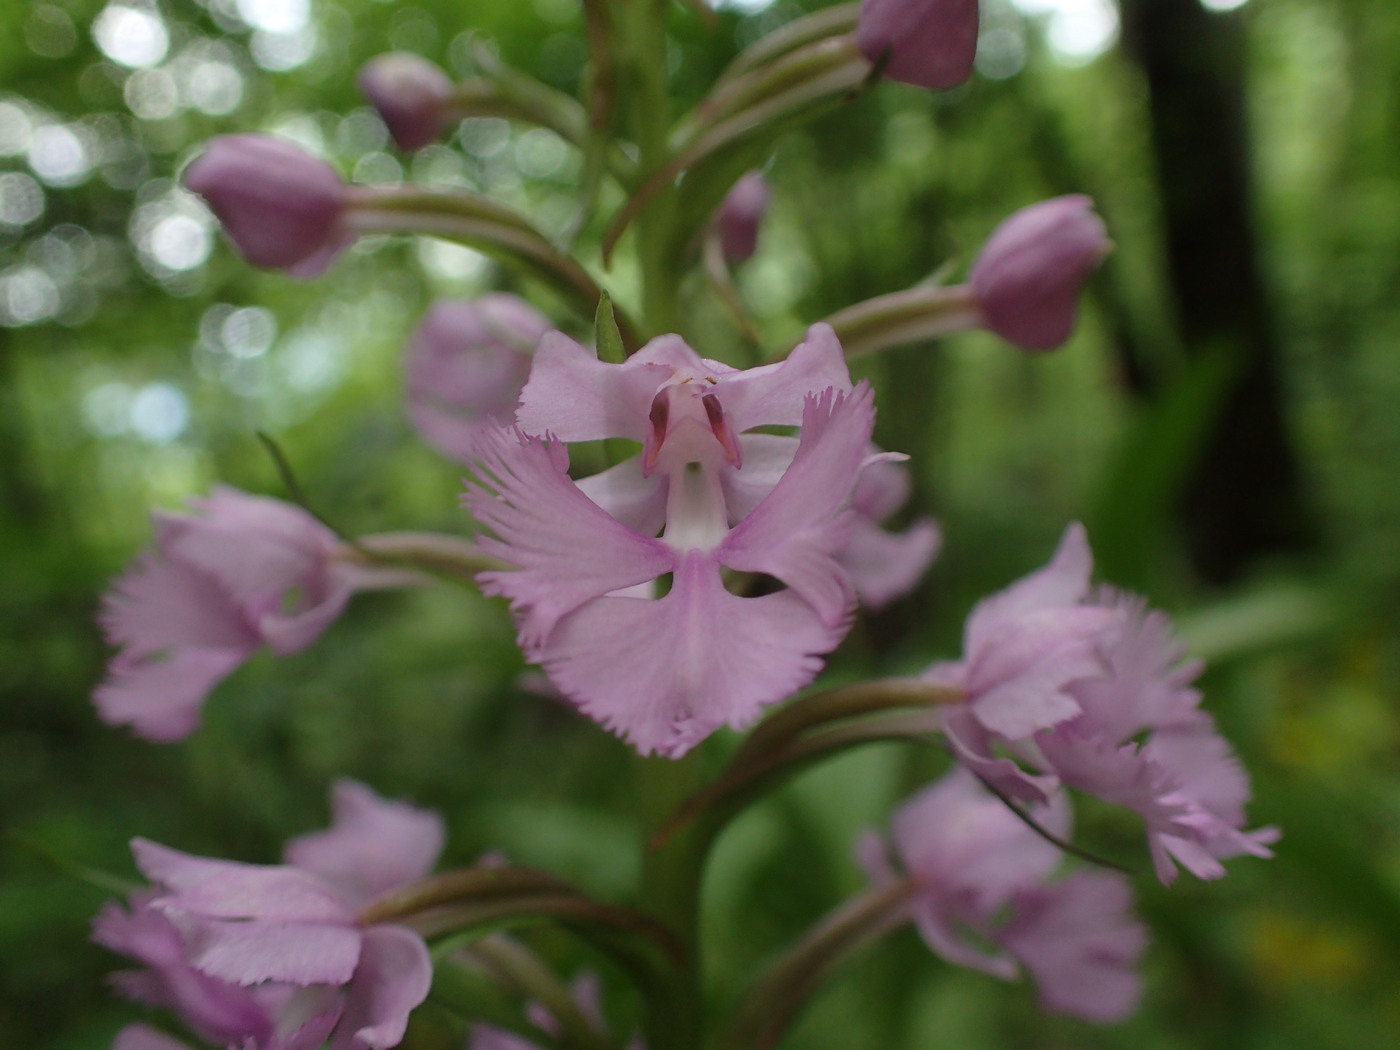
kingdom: Plantae
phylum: Tracheophyta
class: Liliopsida
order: Asparagales
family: Orchidaceae
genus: Platanthera
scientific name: Platanthera grandiflora
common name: Greater purple fringed orchid
